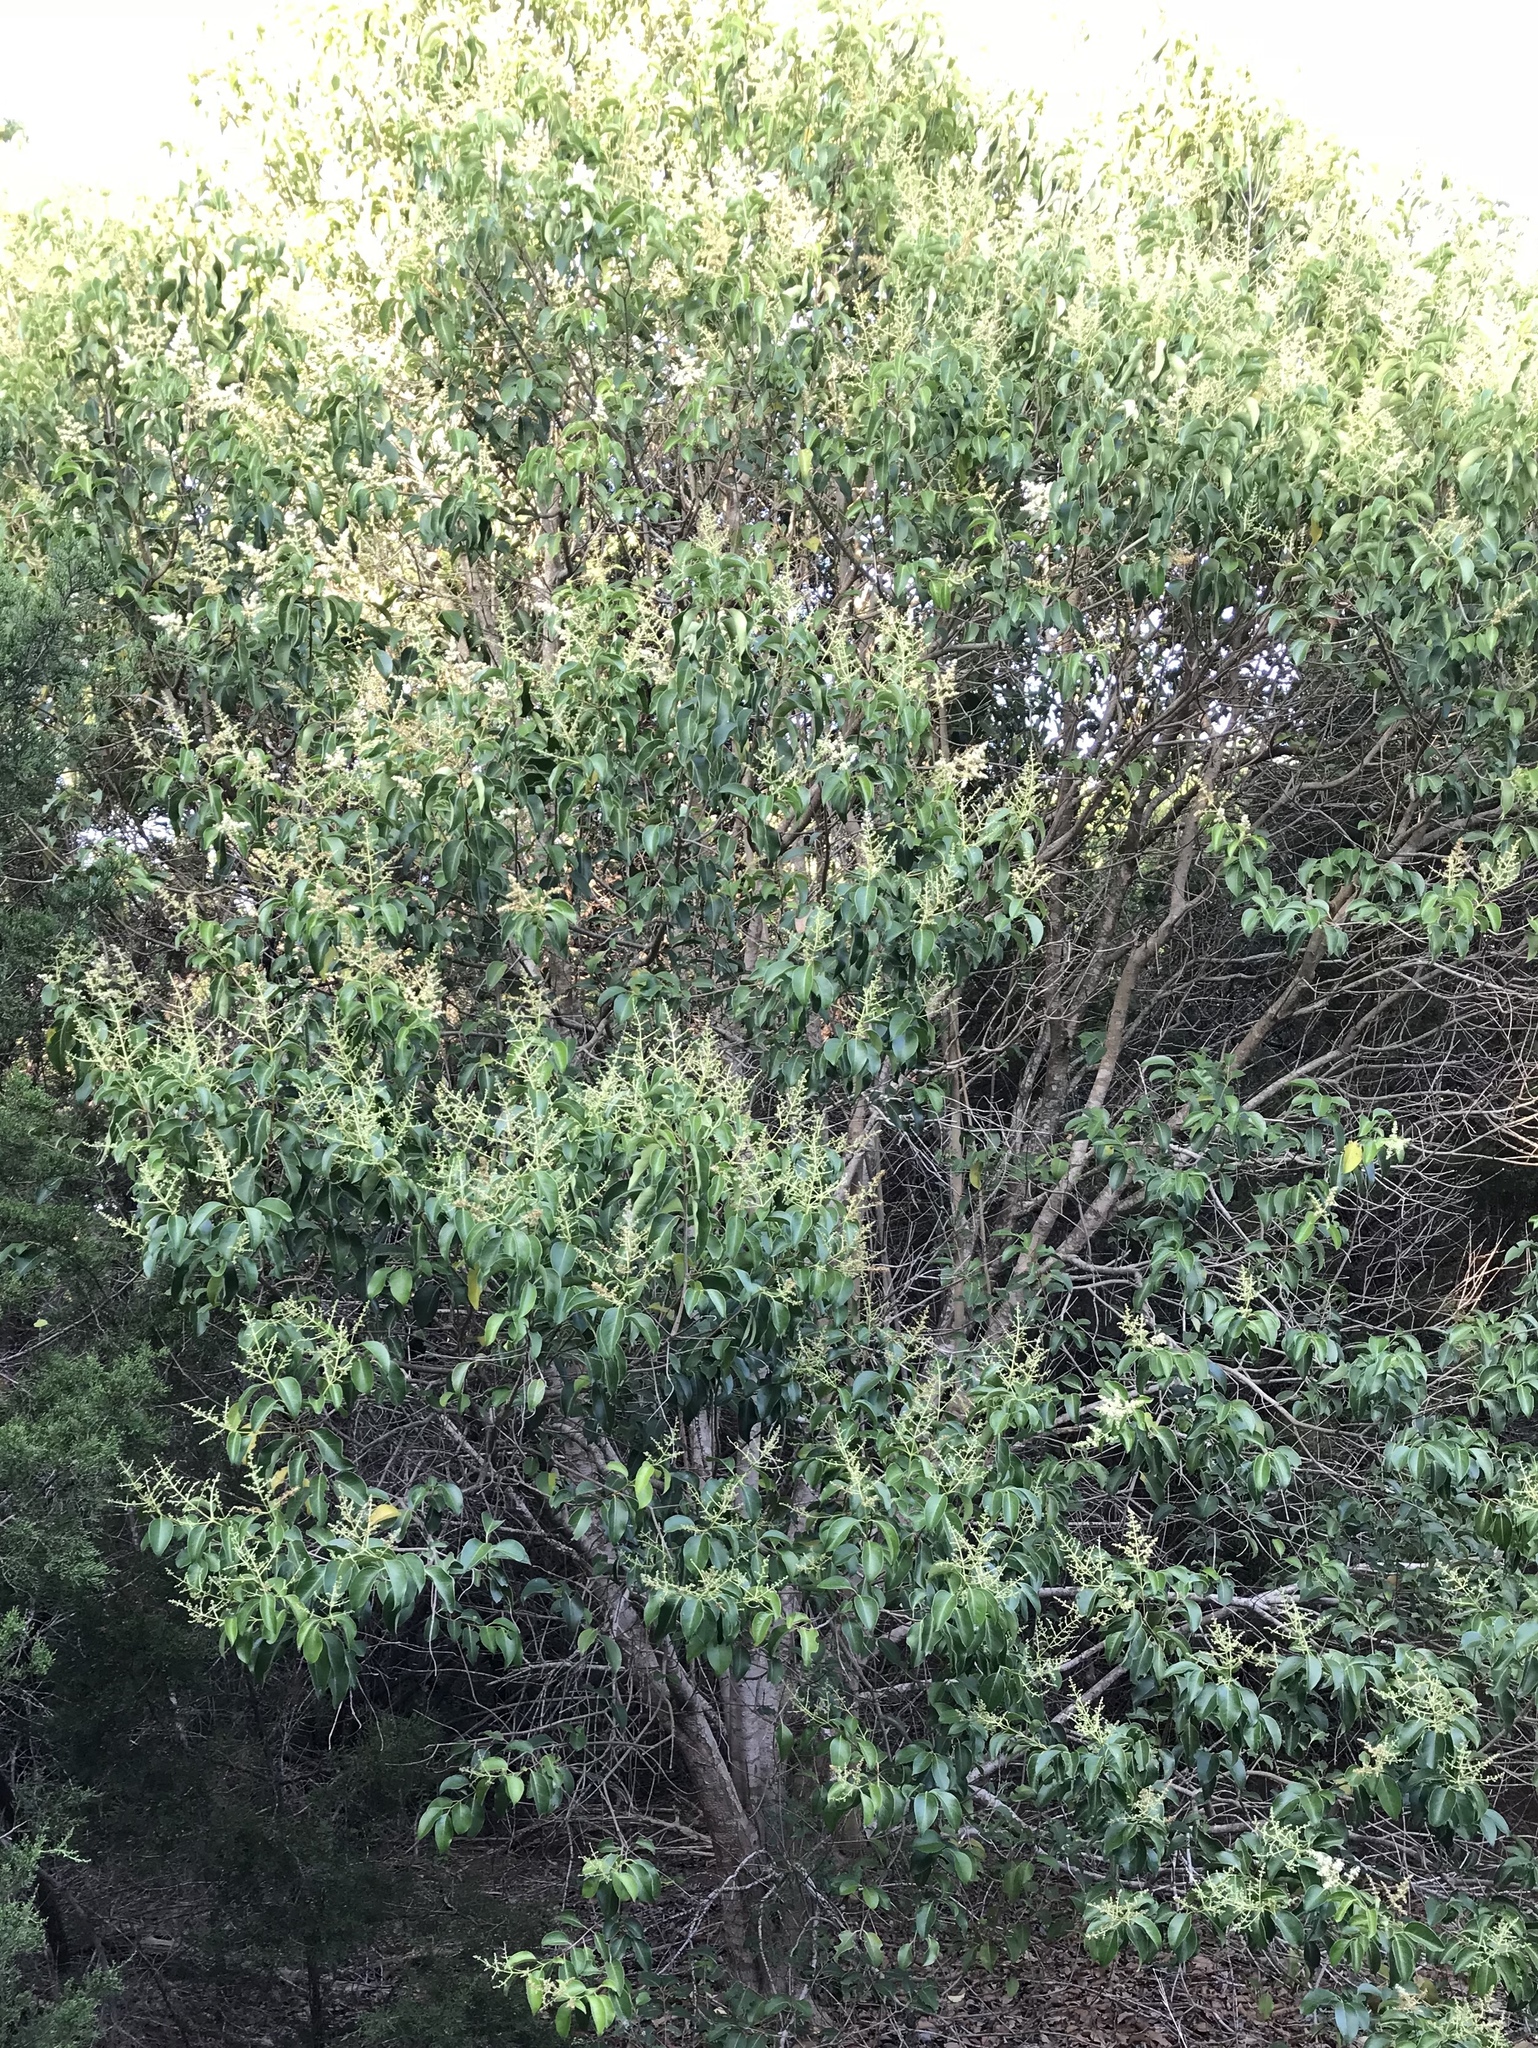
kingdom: Plantae
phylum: Tracheophyta
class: Magnoliopsida
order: Lamiales
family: Oleaceae
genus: Ligustrum
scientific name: Ligustrum lucidum
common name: Glossy privet
